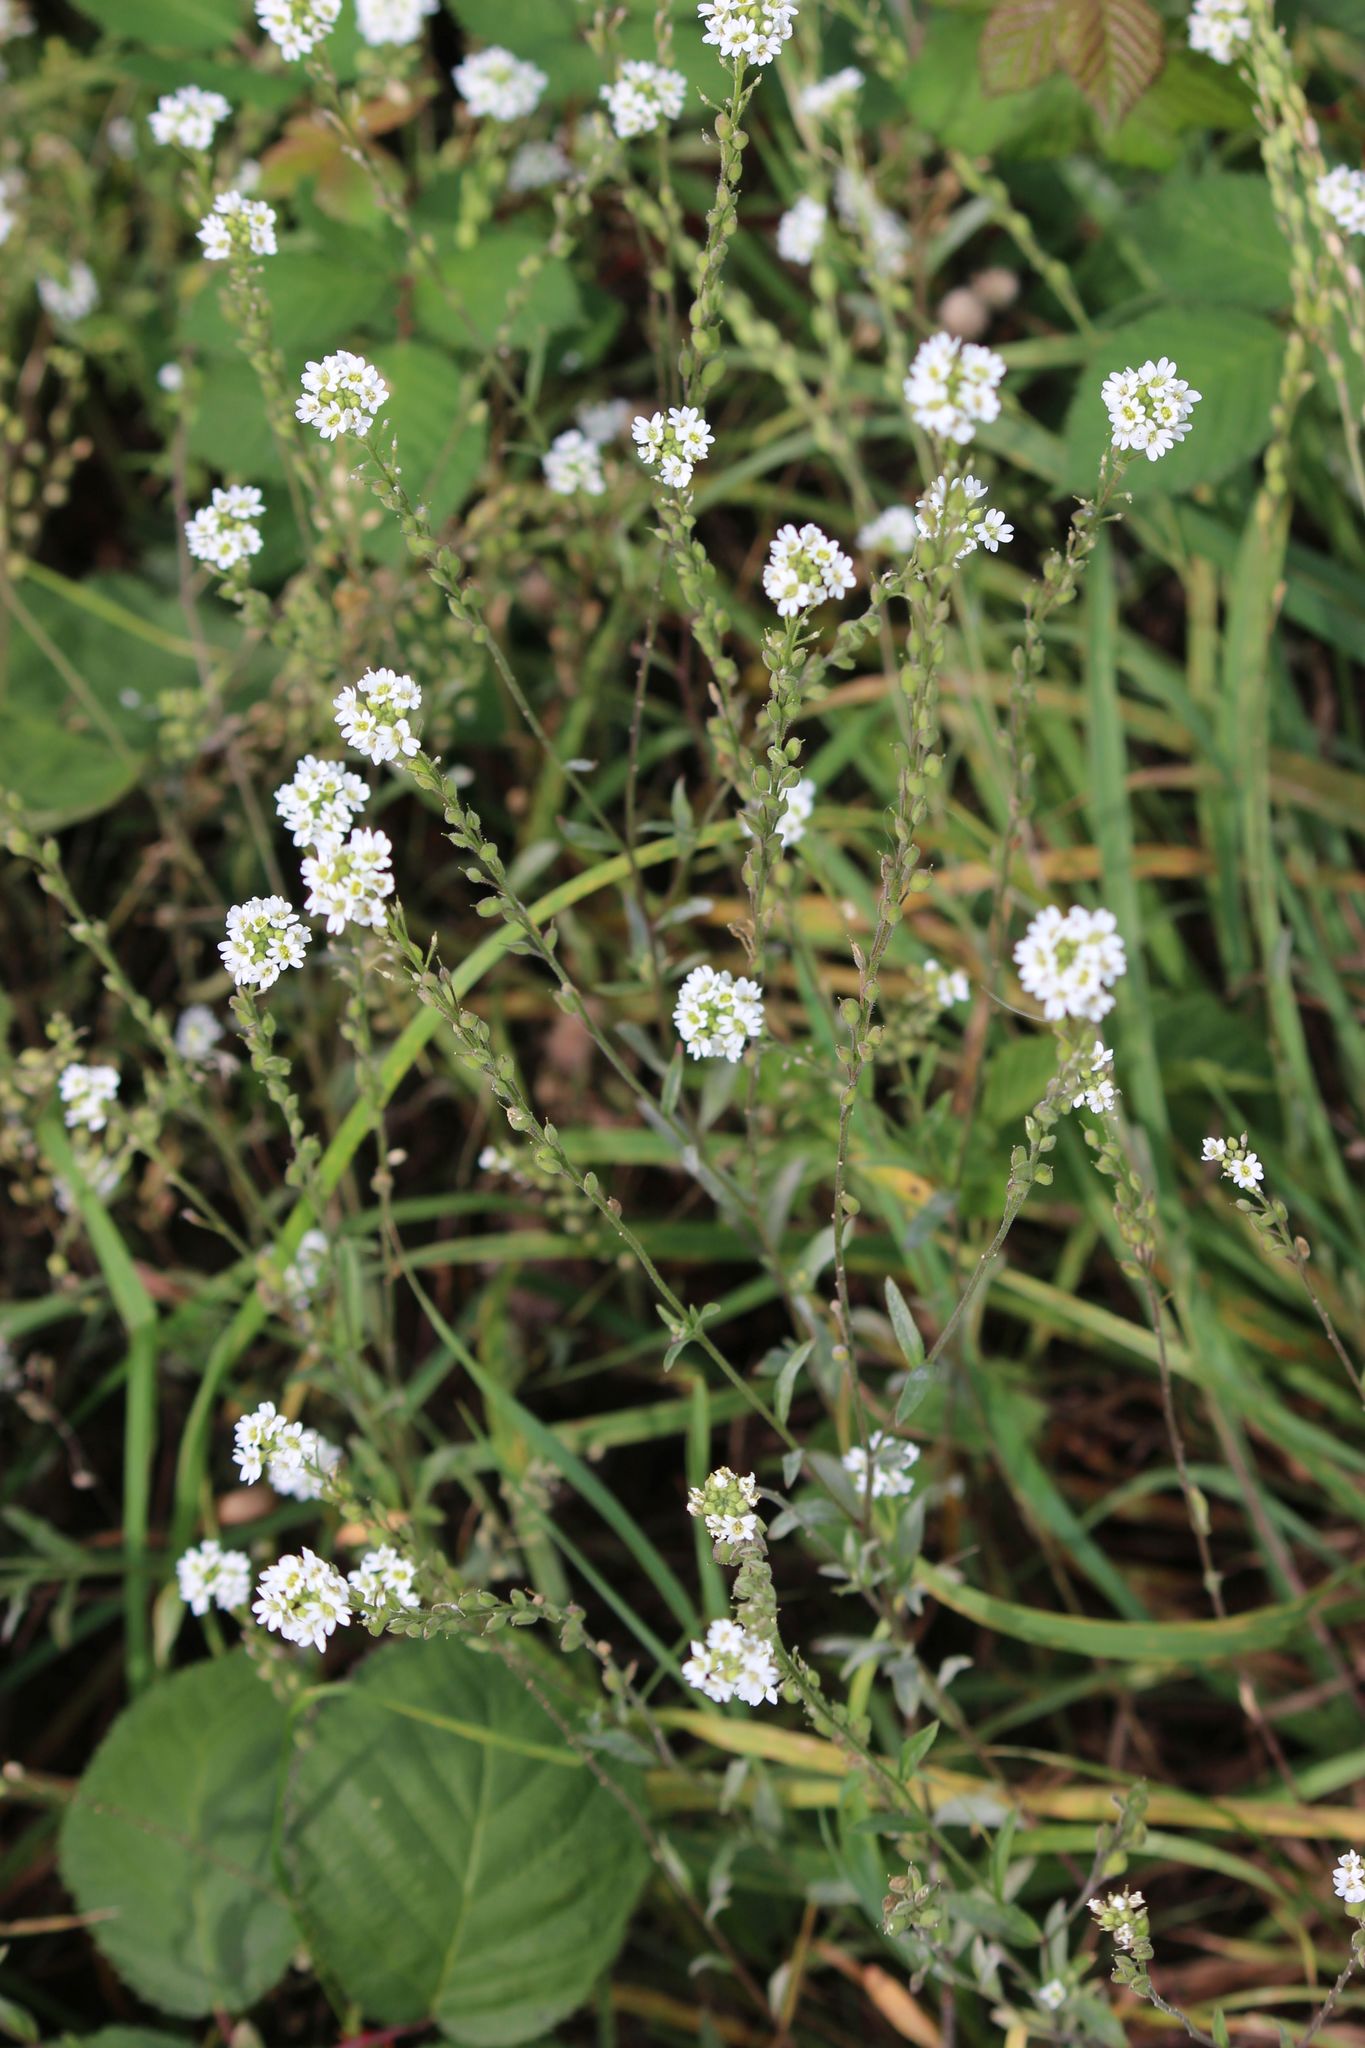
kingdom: Plantae
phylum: Tracheophyta
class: Magnoliopsida
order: Brassicales
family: Brassicaceae
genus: Berteroa
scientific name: Berteroa incana
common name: Hoary alison
